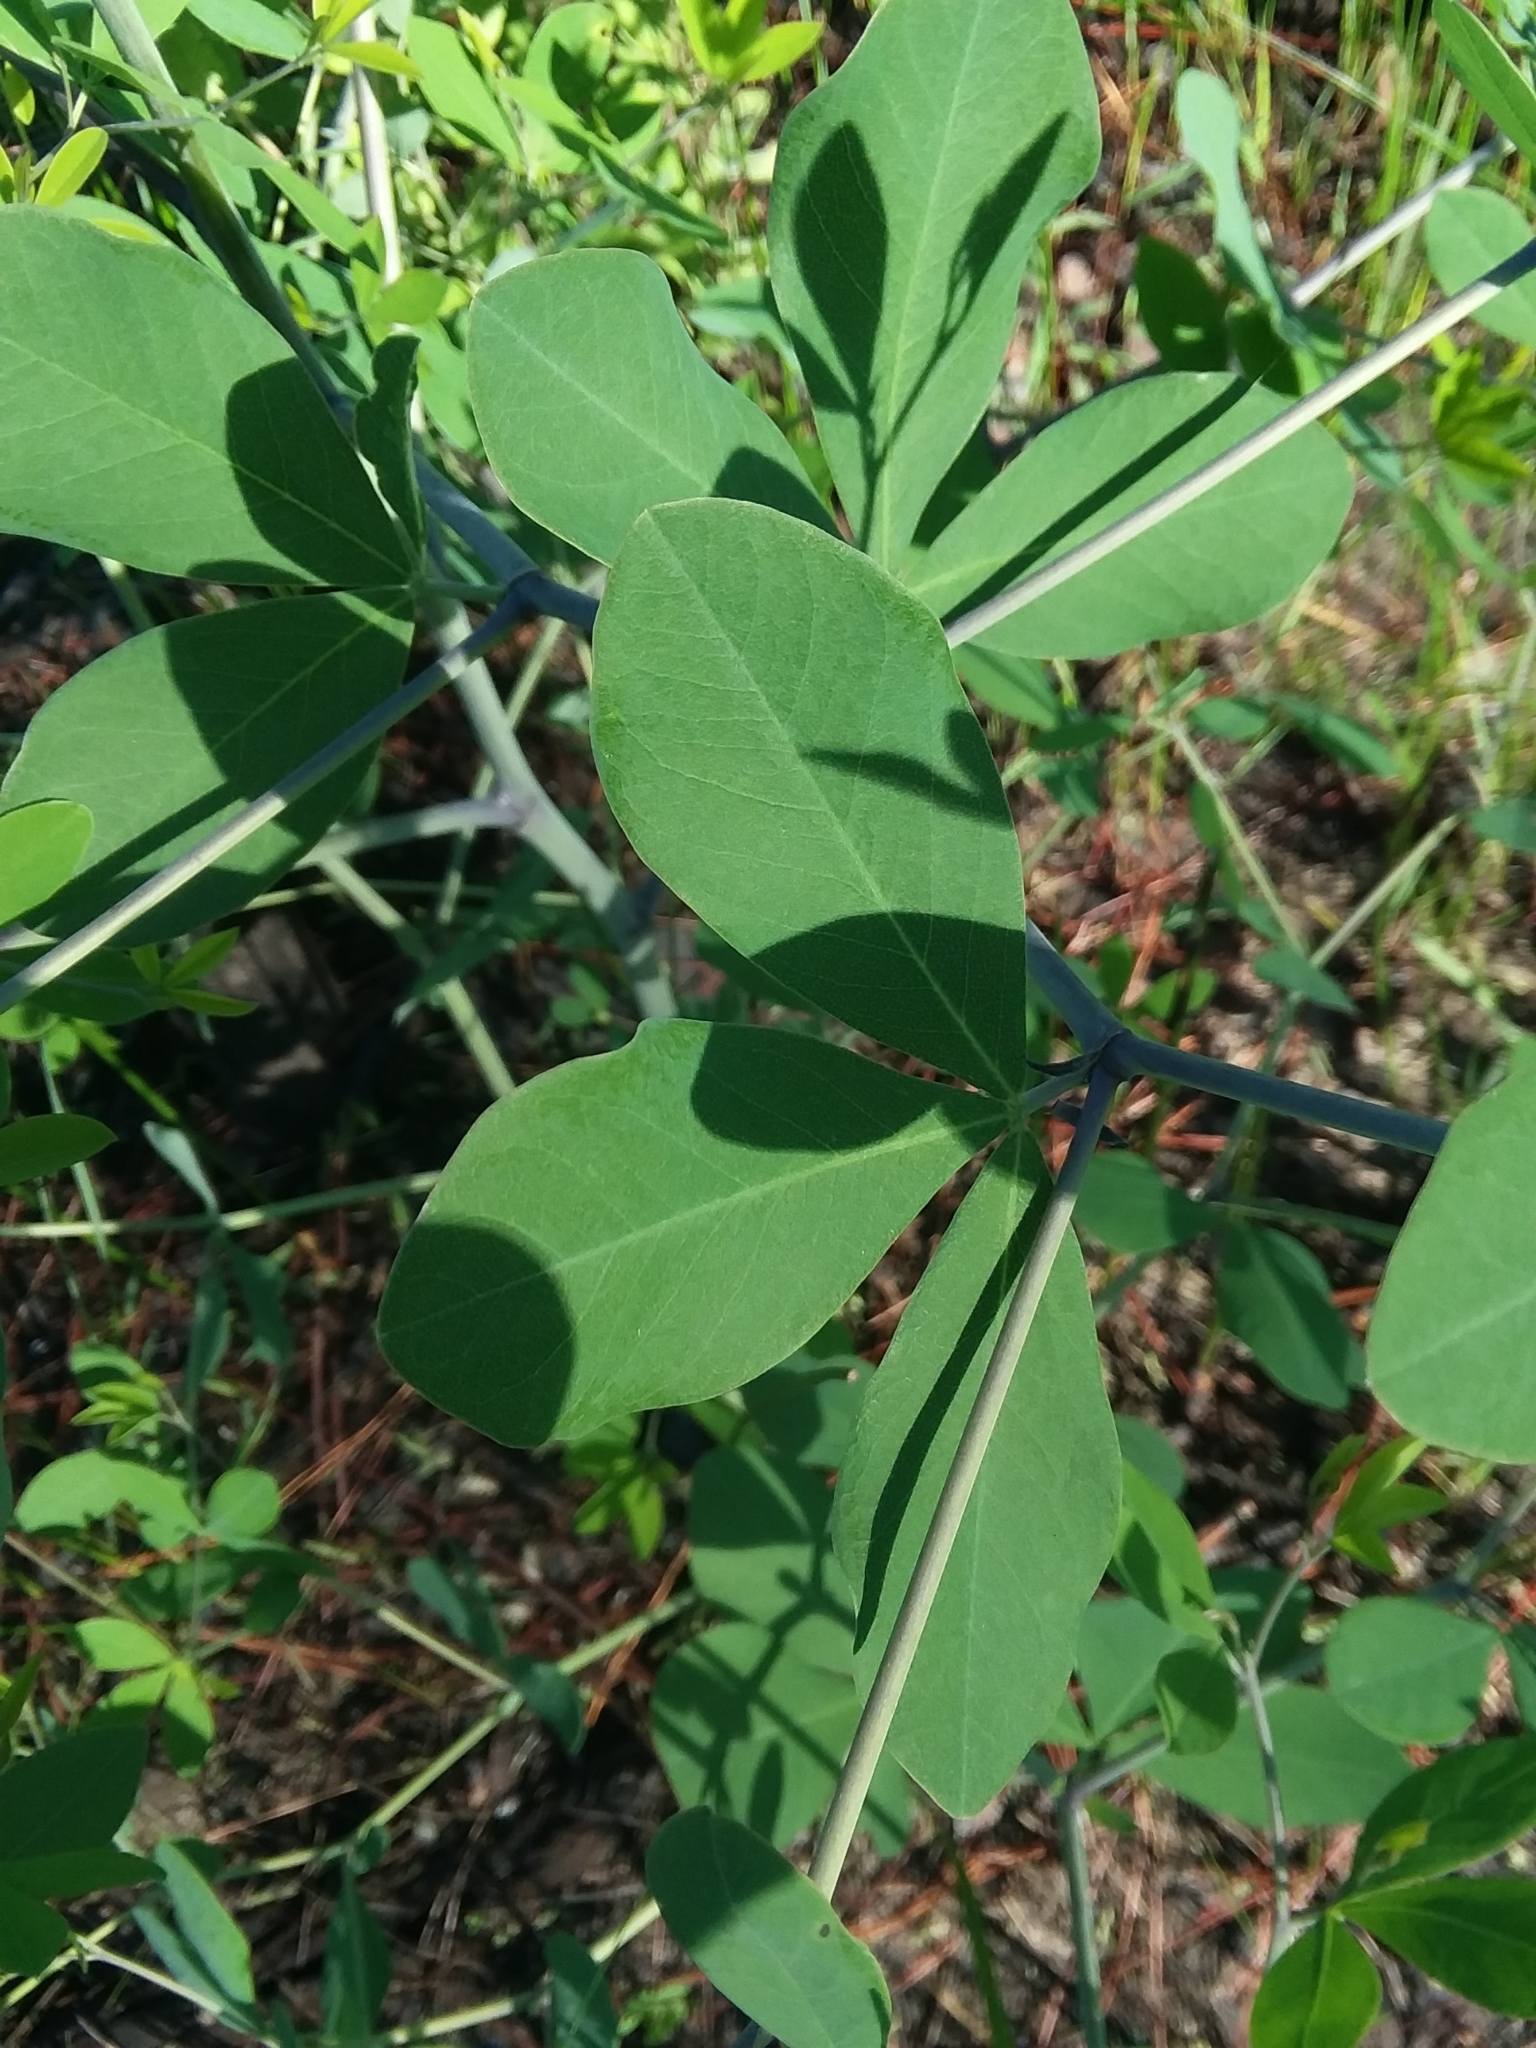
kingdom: Plantae
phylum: Tracheophyta
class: Magnoliopsida
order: Fabales
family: Fabaceae
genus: Baptisia
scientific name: Baptisia alba
